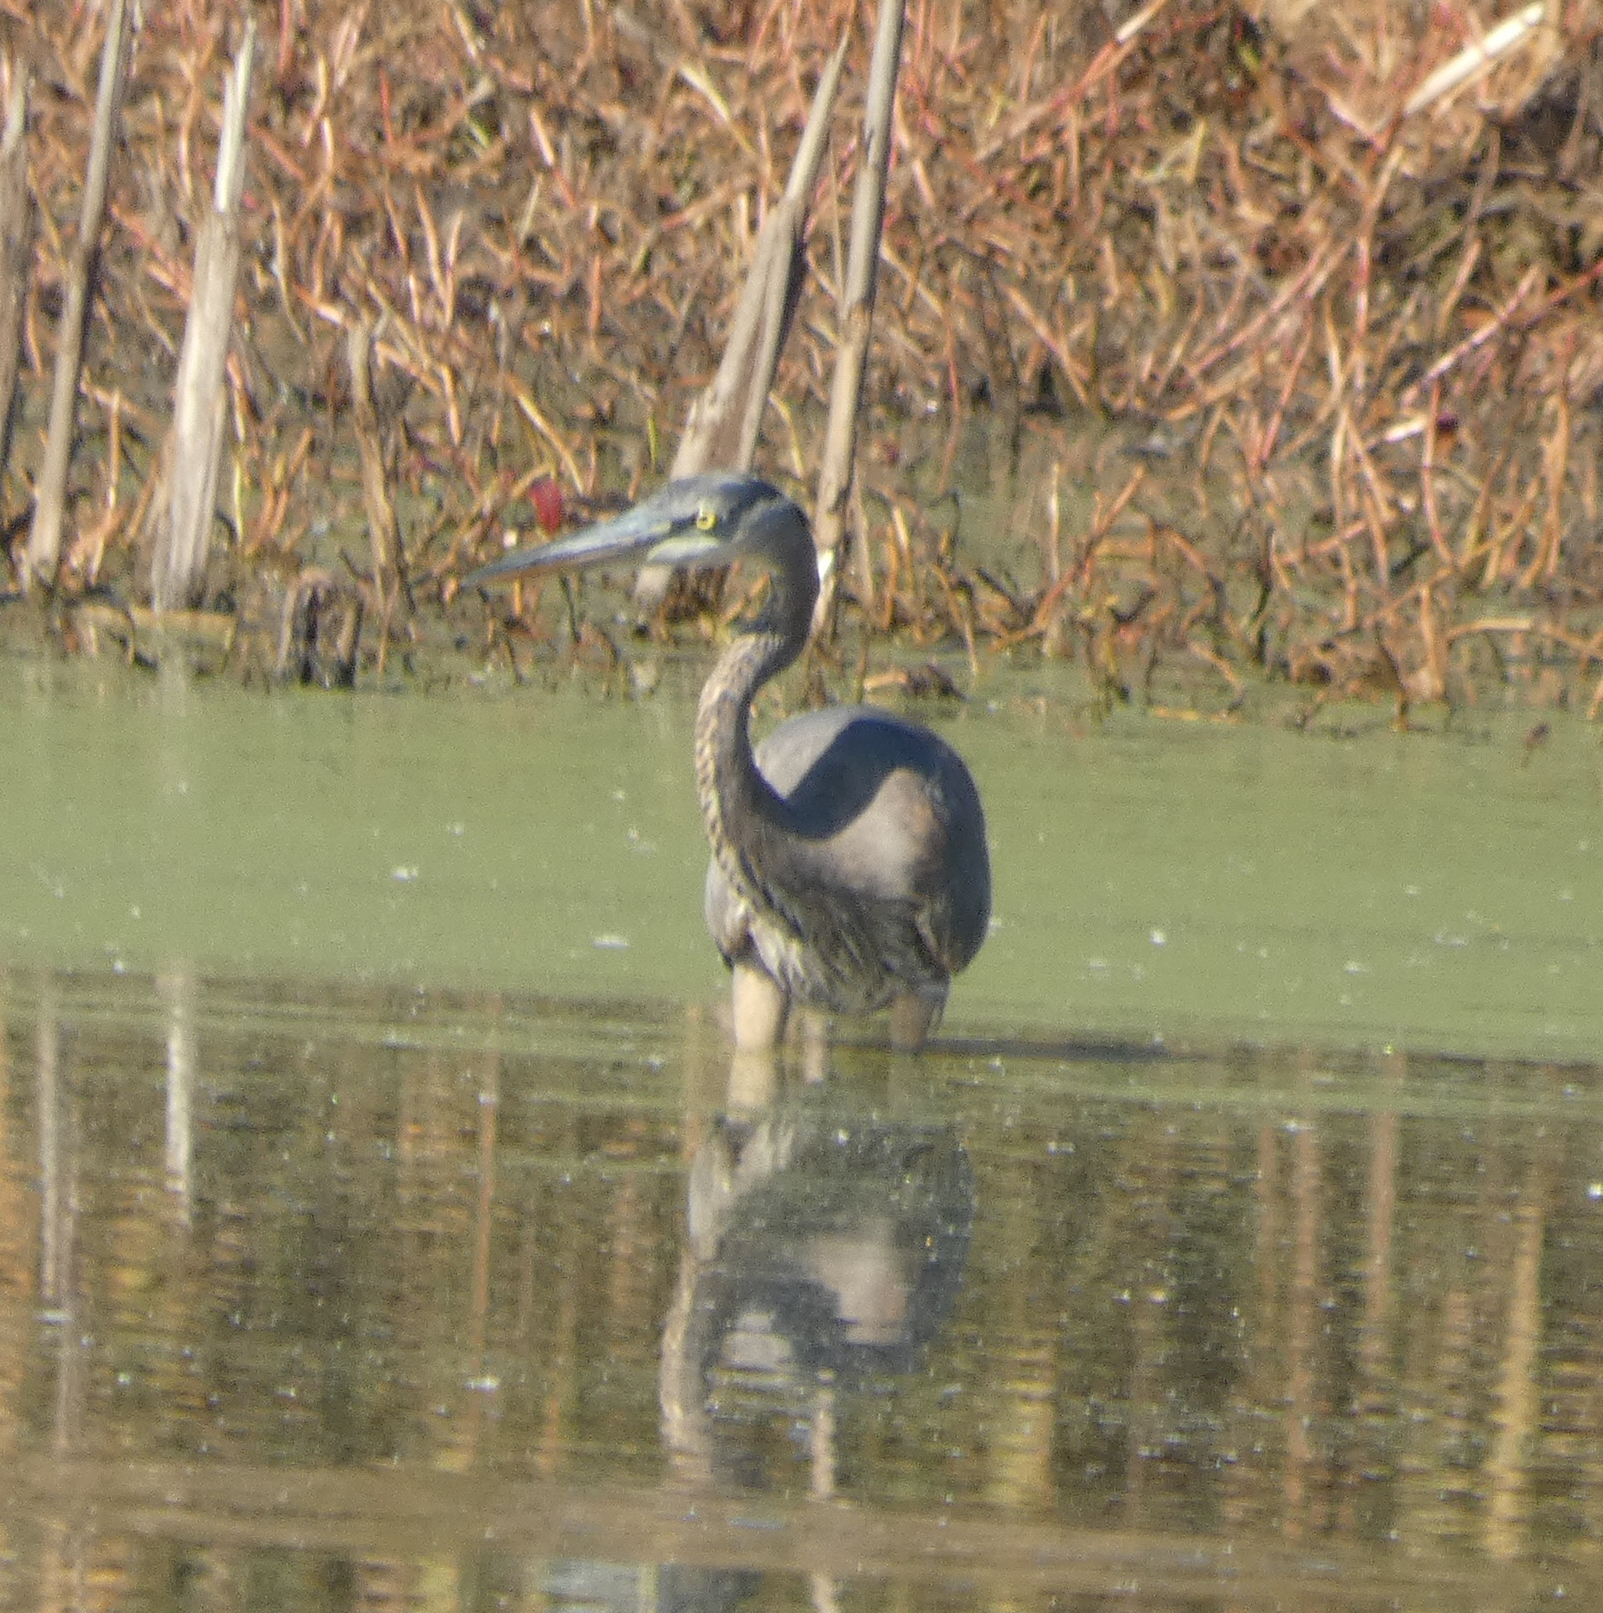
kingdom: Animalia
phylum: Chordata
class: Aves
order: Pelecaniformes
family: Ardeidae
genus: Ardea
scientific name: Ardea herodias
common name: Great blue heron
